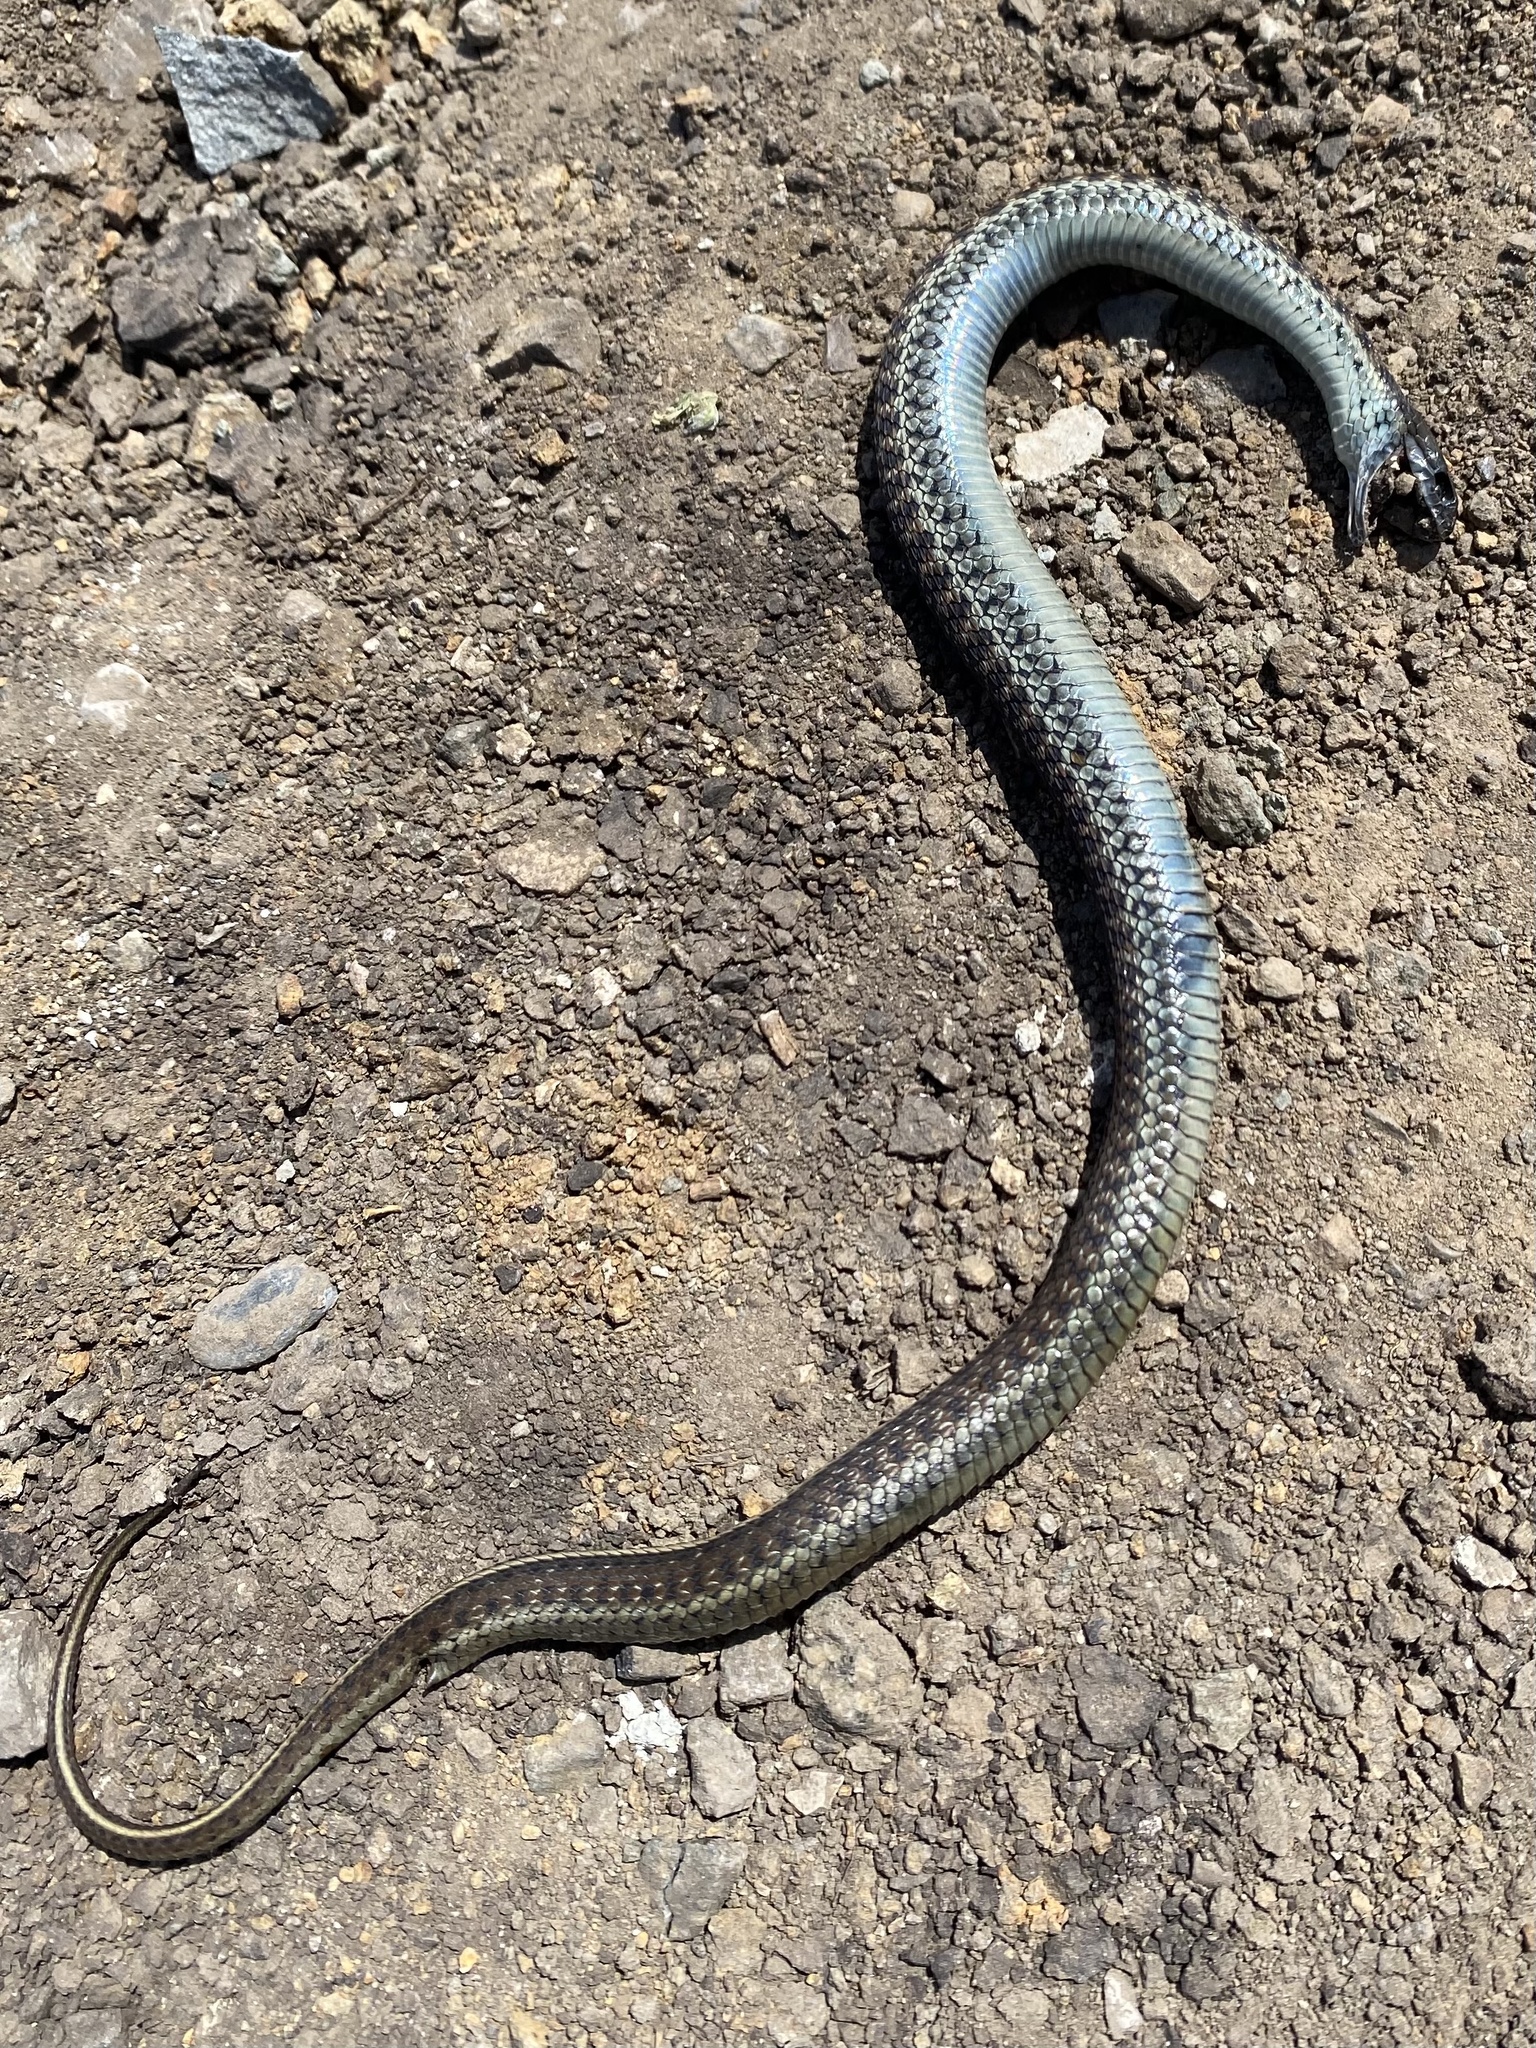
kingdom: Animalia
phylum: Chordata
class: Squamata
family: Colubridae
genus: Thamnophis
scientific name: Thamnophis elegans
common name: Western terrestrial garter snake
